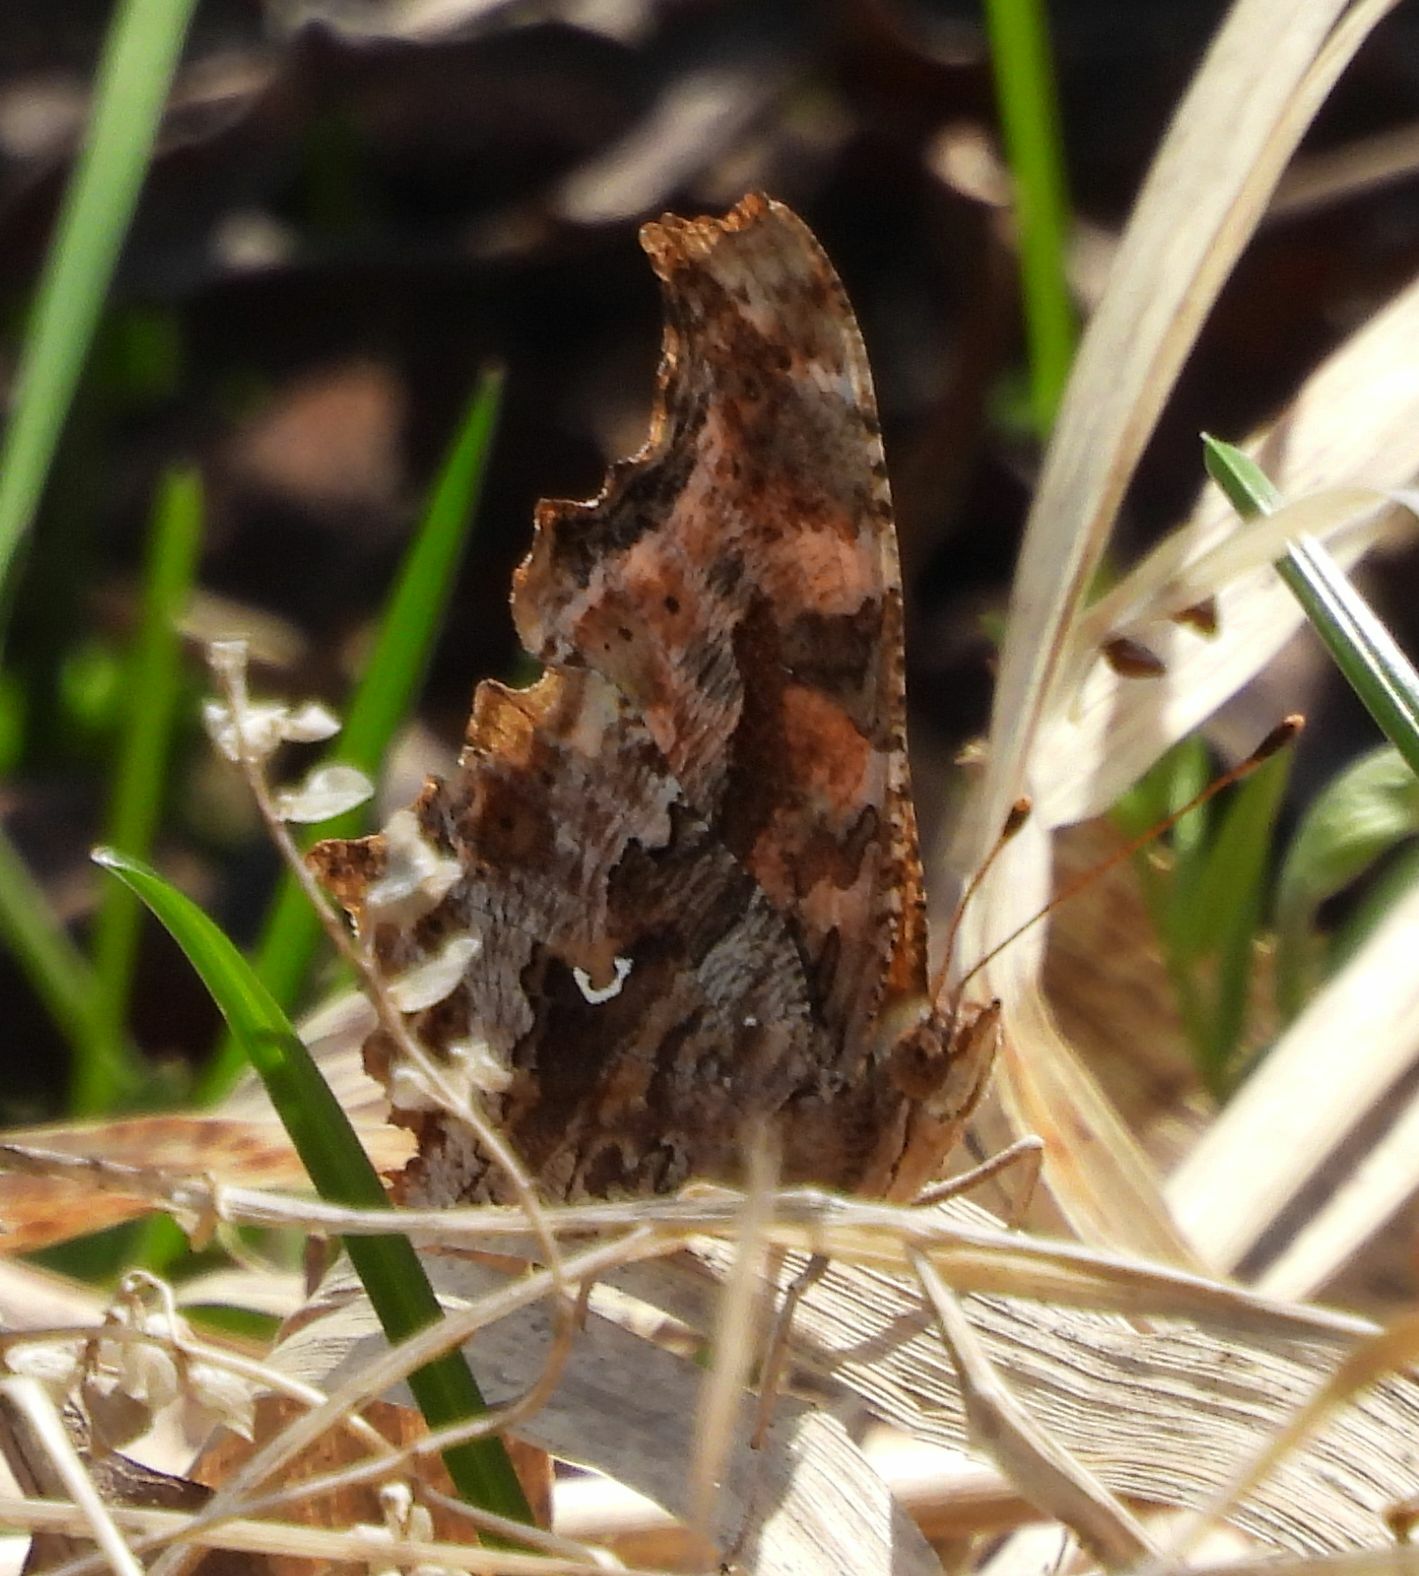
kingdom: Animalia
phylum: Arthropoda
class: Insecta
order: Lepidoptera
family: Nymphalidae
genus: Polygonia
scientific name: Polygonia comma
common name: Eastern comma
